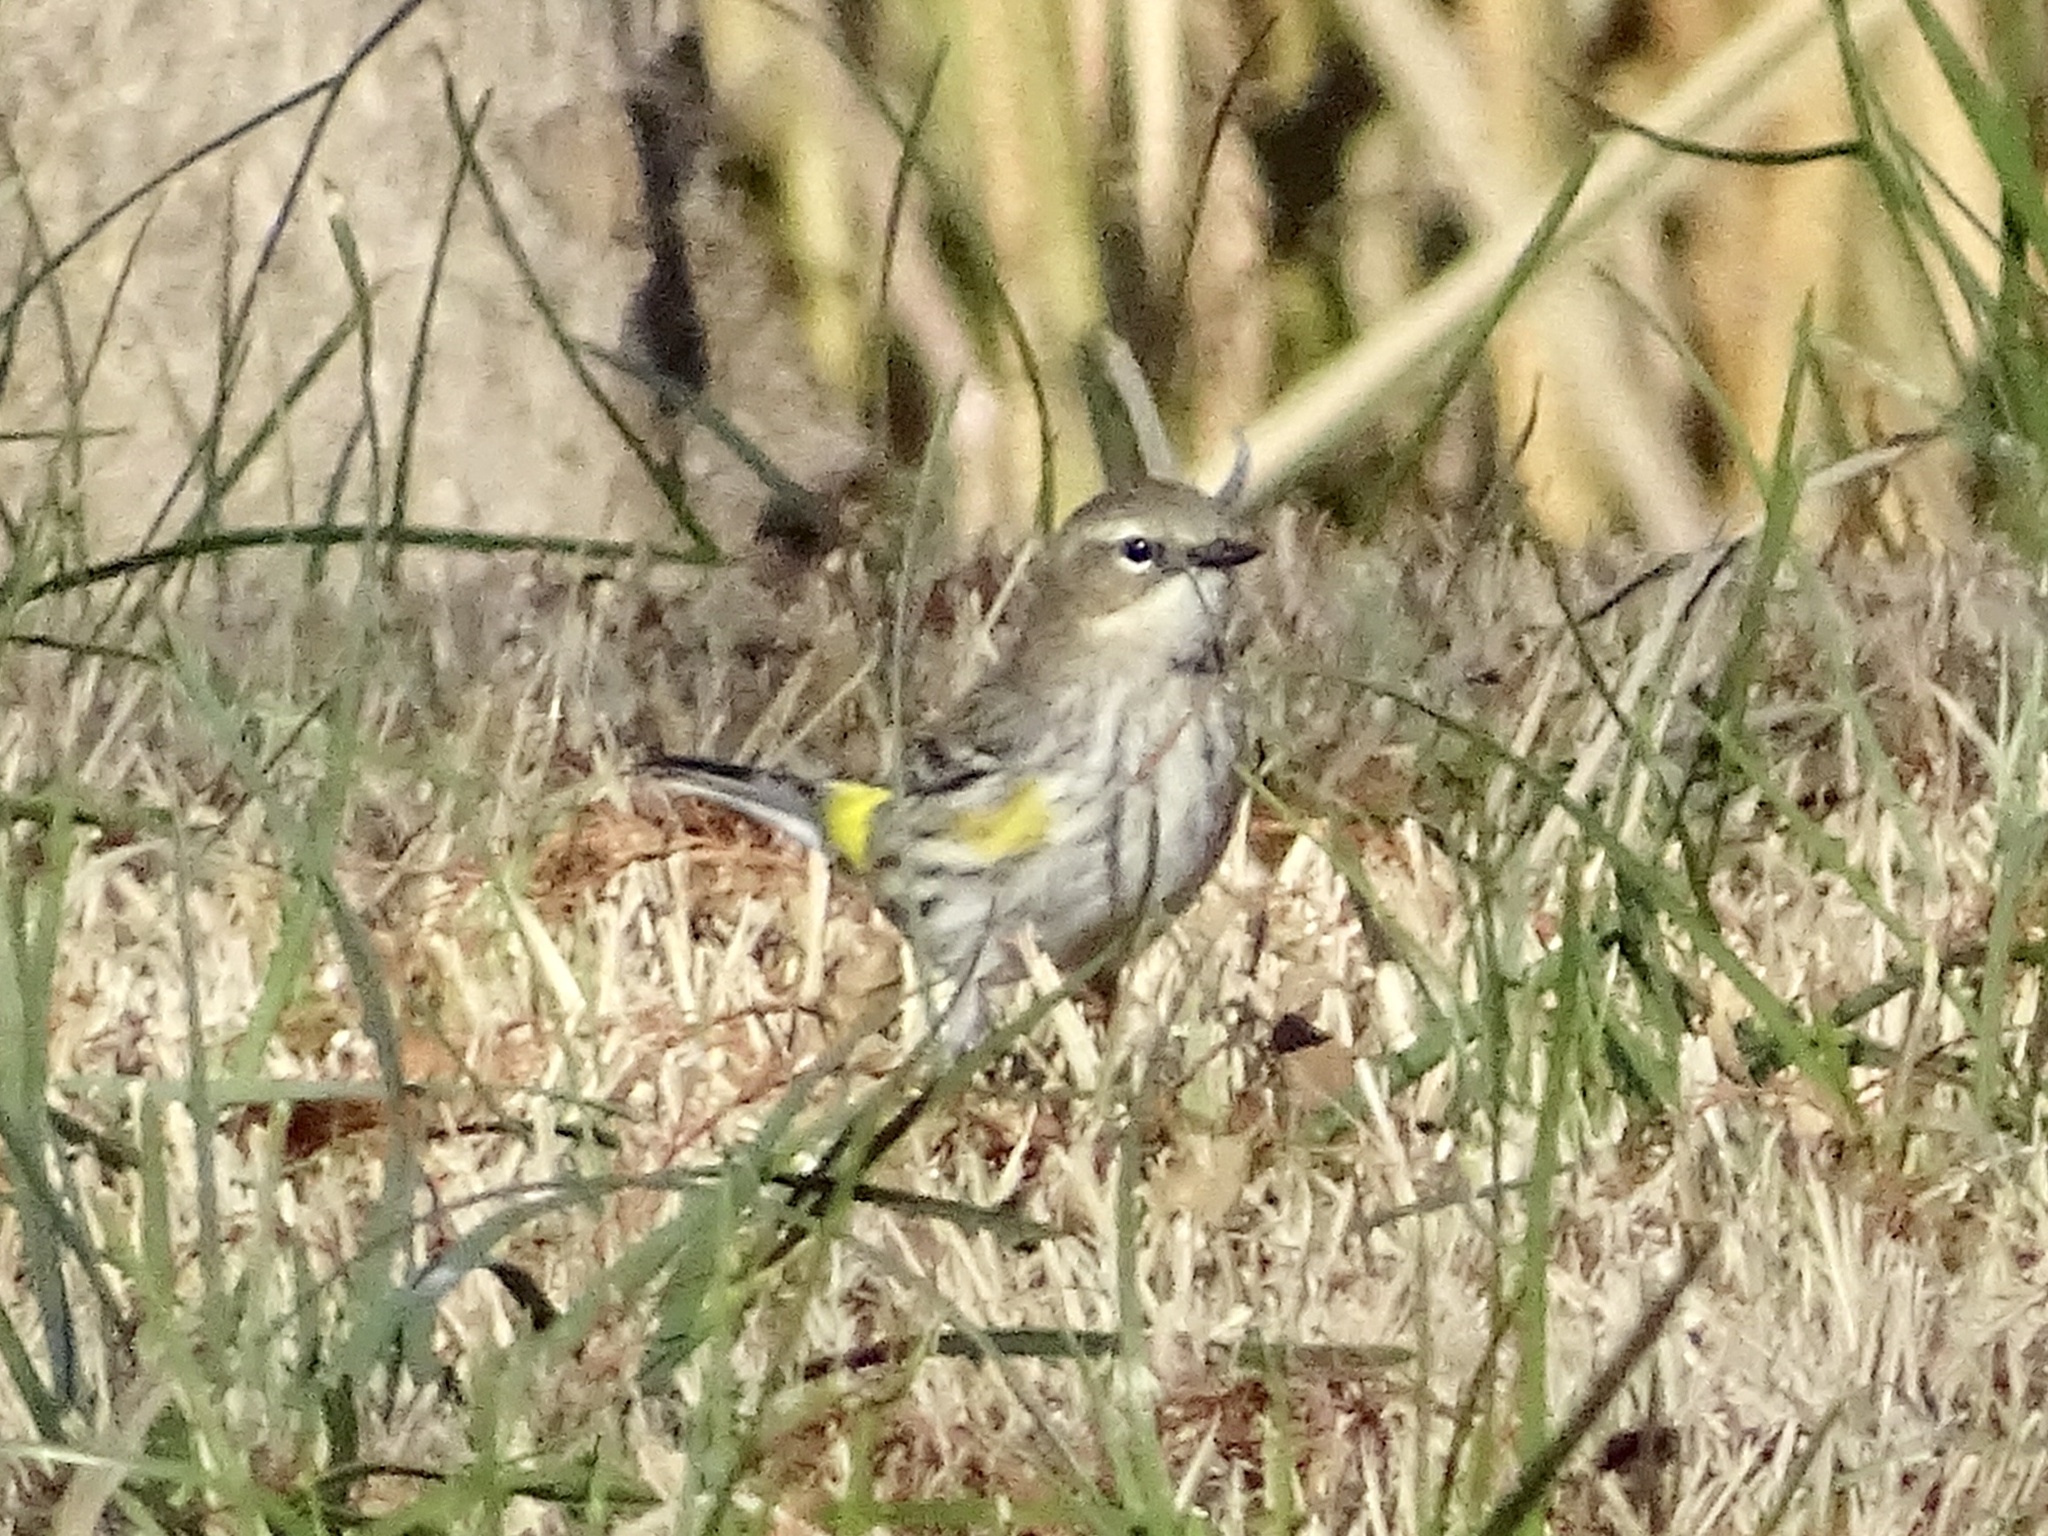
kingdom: Animalia
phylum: Chordata
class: Aves
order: Passeriformes
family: Parulidae
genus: Setophaga
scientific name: Setophaga coronata
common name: Myrtle warbler
